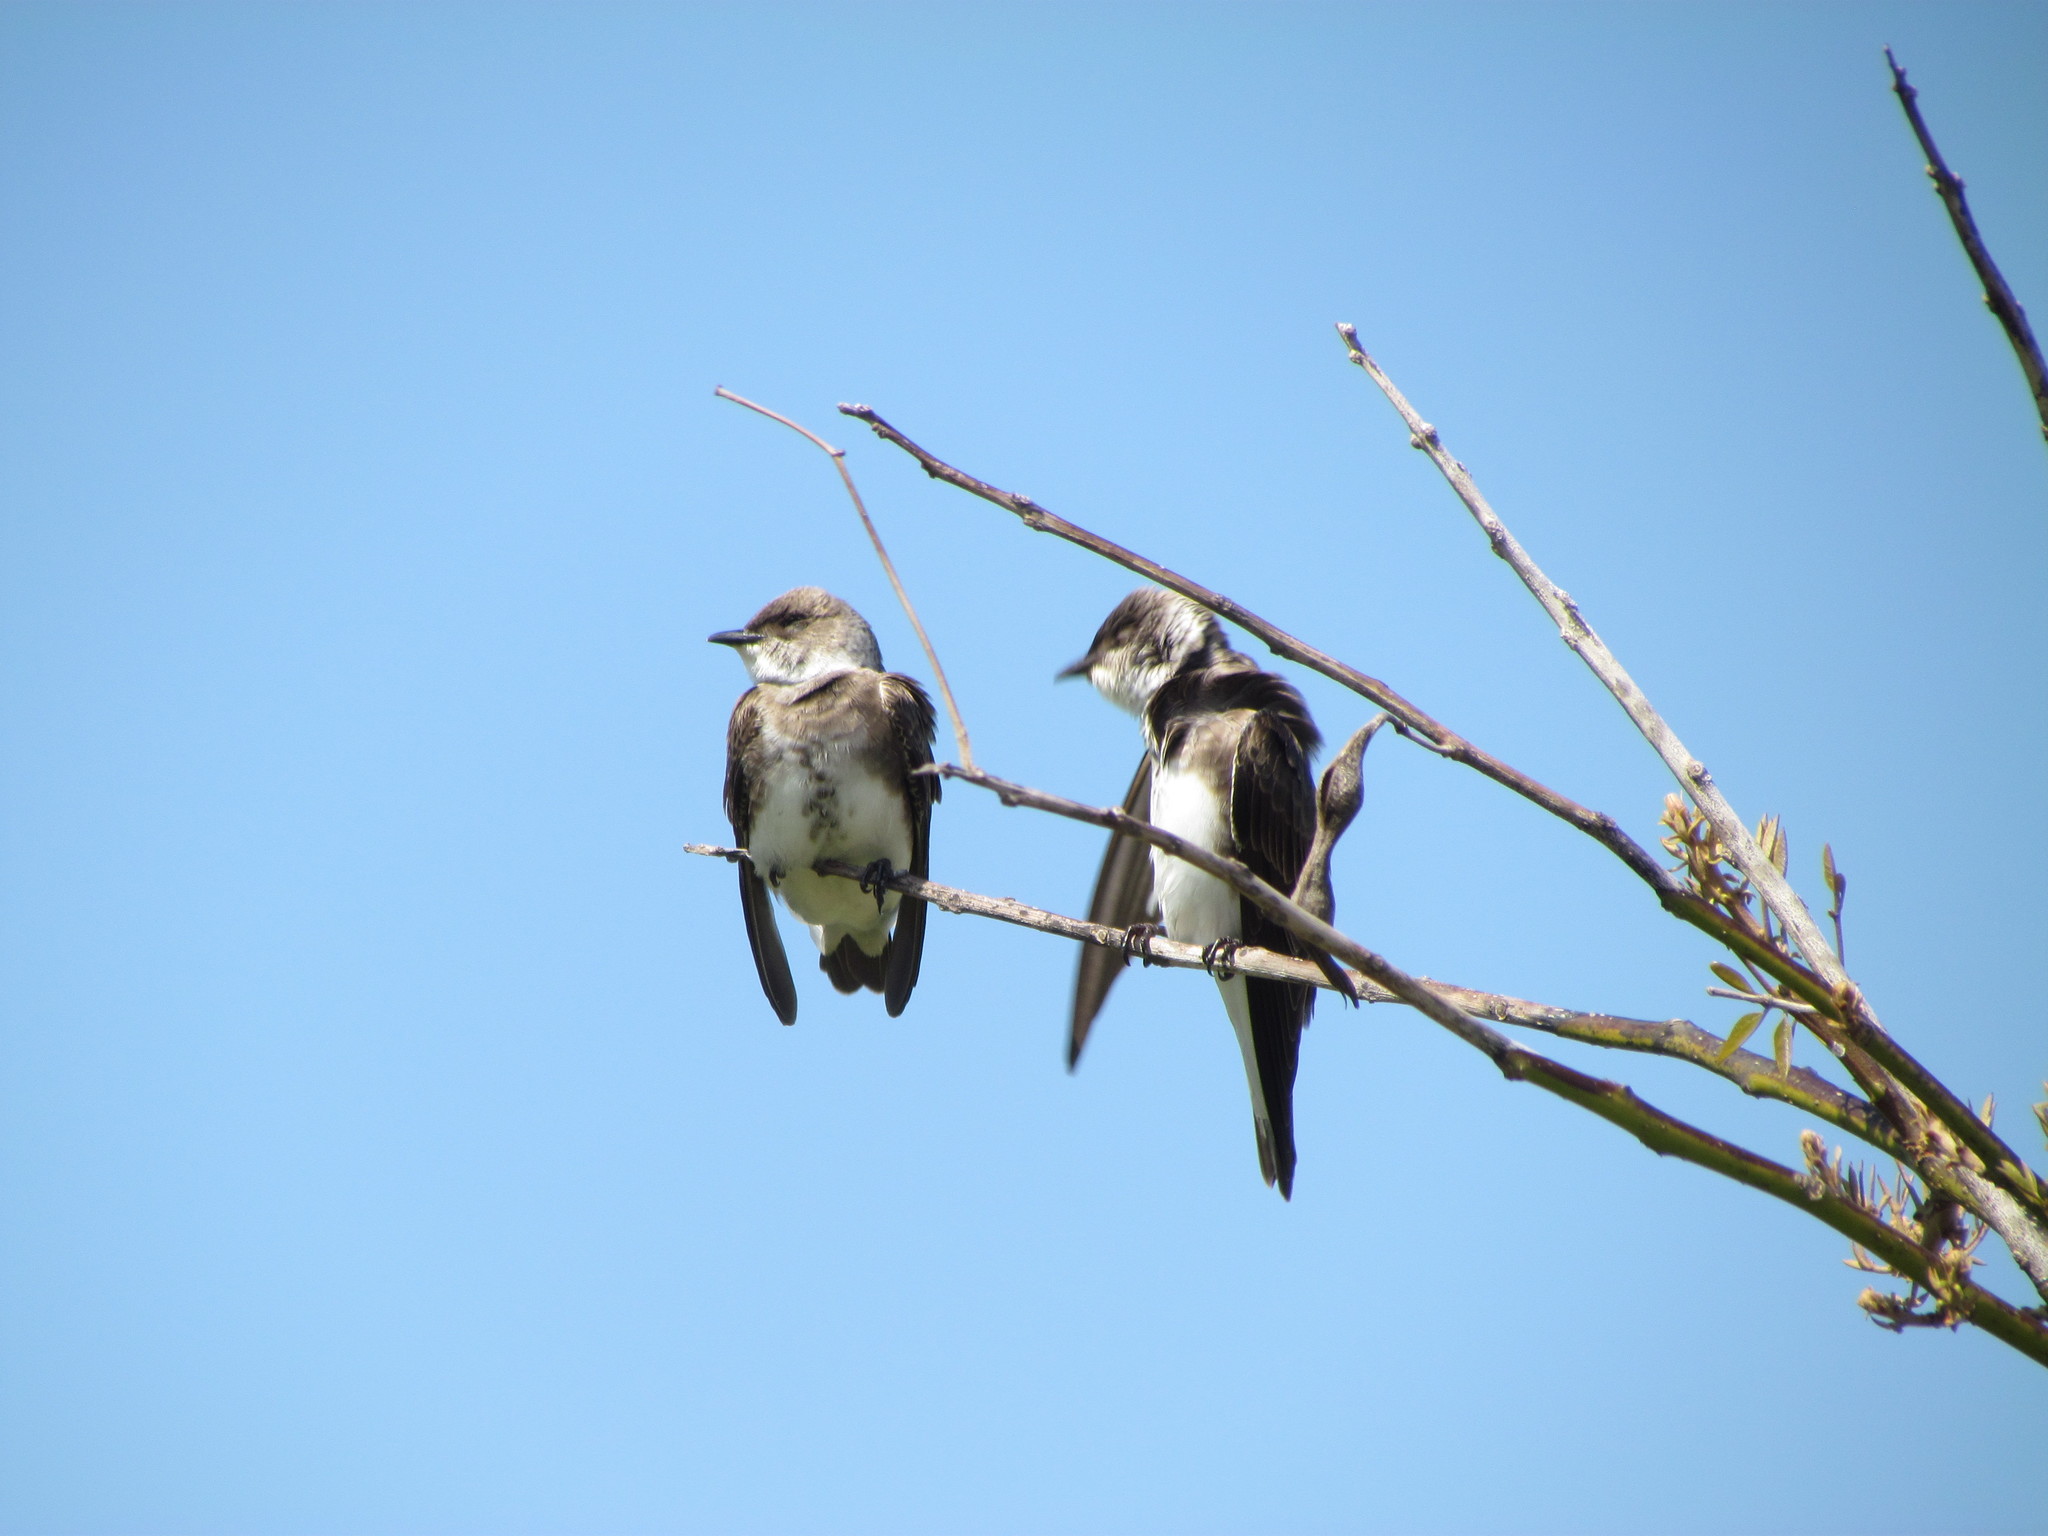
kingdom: Animalia
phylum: Chordata
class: Aves
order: Passeriformes
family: Hirundinidae
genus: Progne
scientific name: Progne tapera
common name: Brown-chested martin
